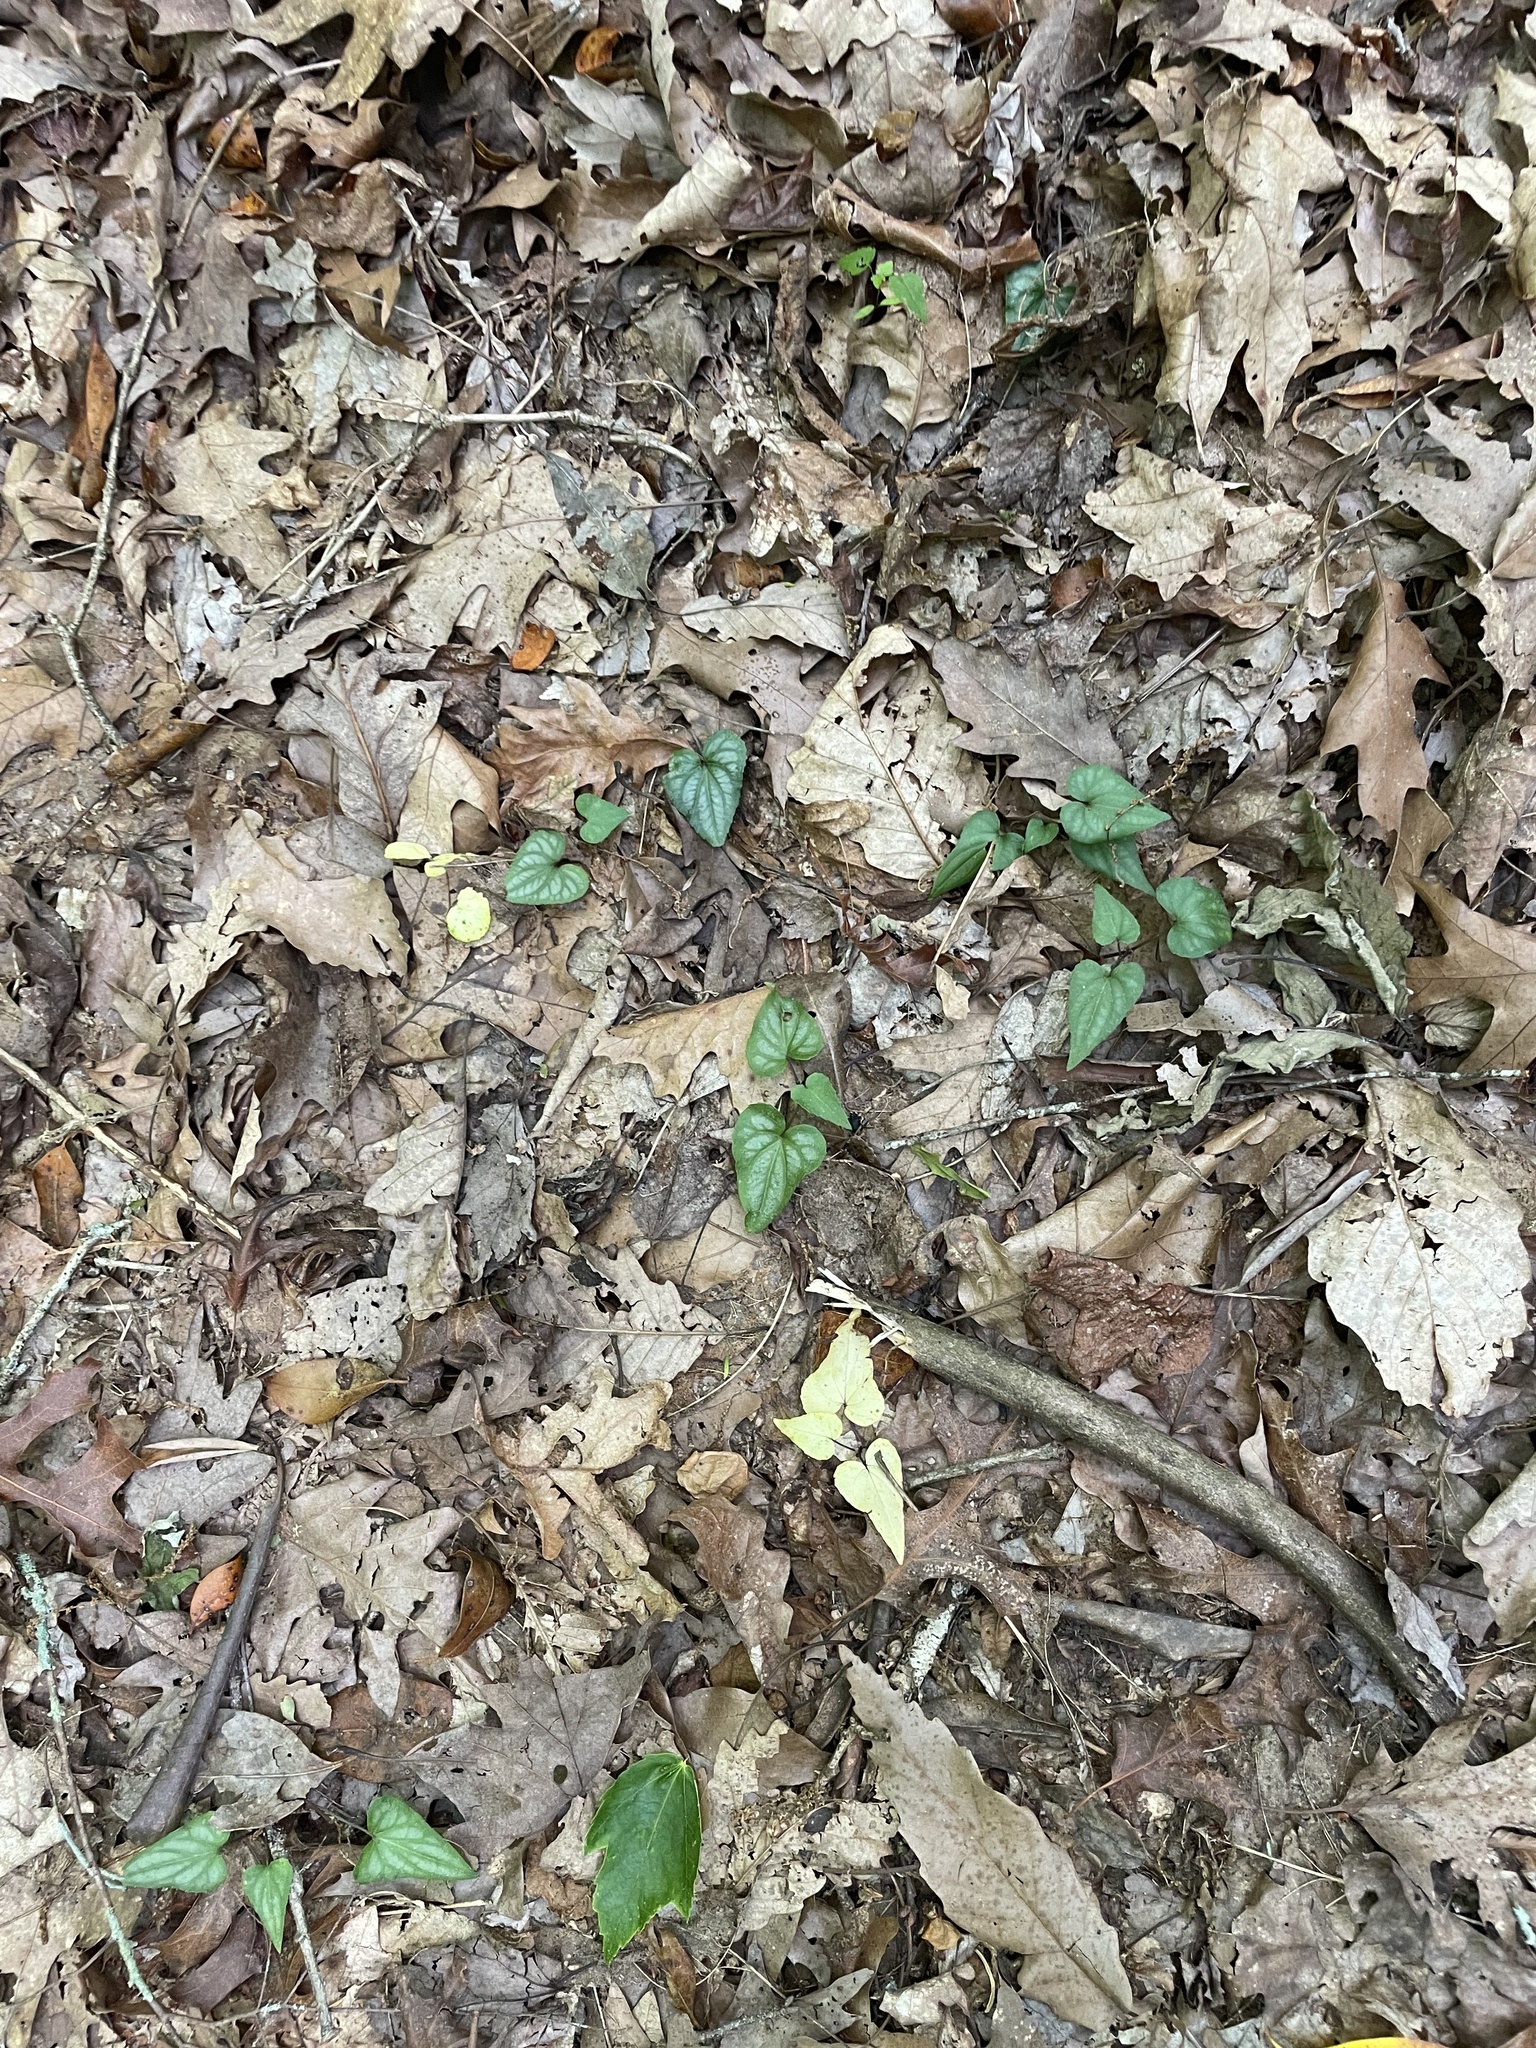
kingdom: Plantae
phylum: Tracheophyta
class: Magnoliopsida
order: Malpighiales
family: Violaceae
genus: Viola
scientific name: Viola hastata
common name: Spear-leaf violet
